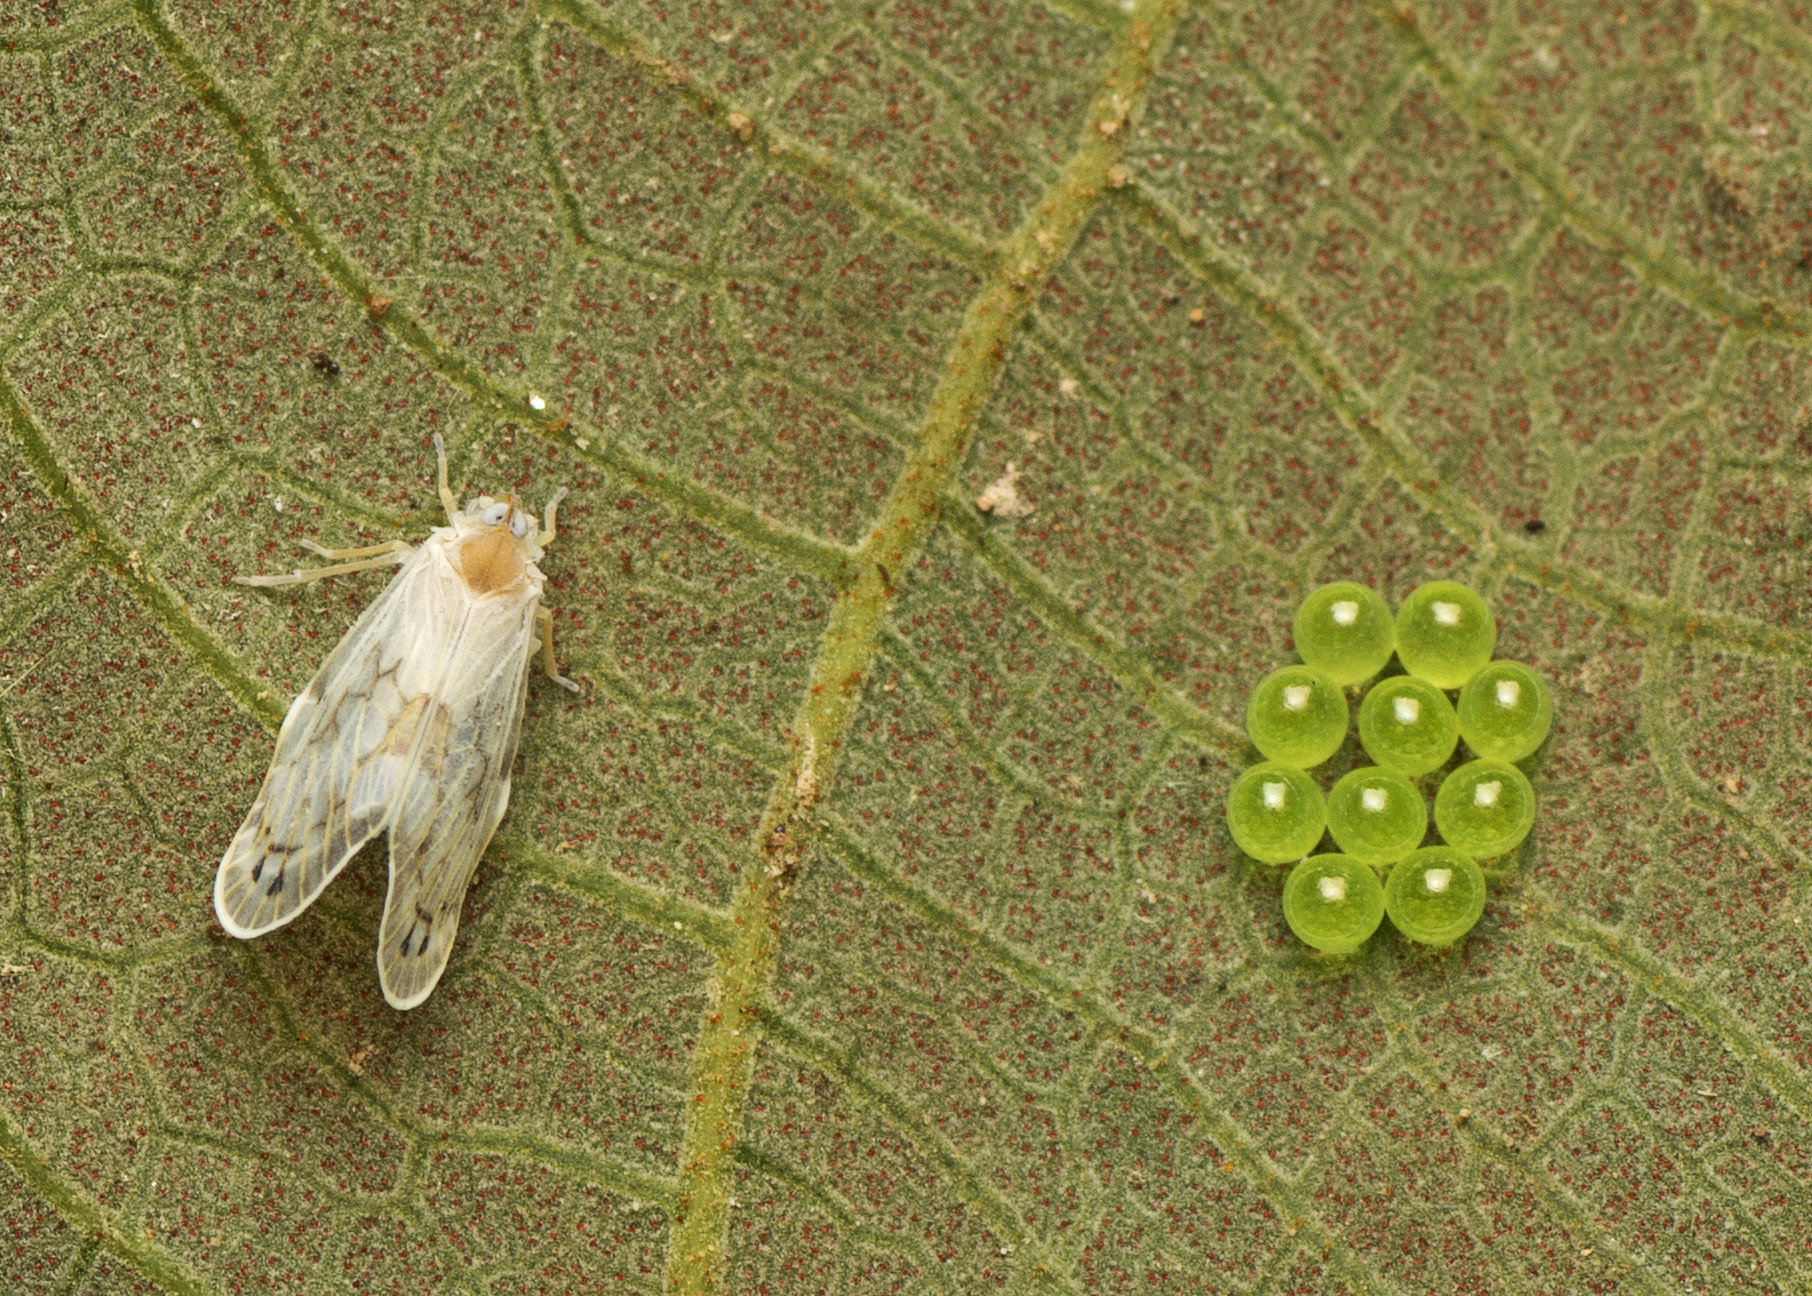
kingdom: Animalia
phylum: Arthropoda
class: Insecta
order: Hemiptera
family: Derbidae
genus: Levu
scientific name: Levu vitiensis
